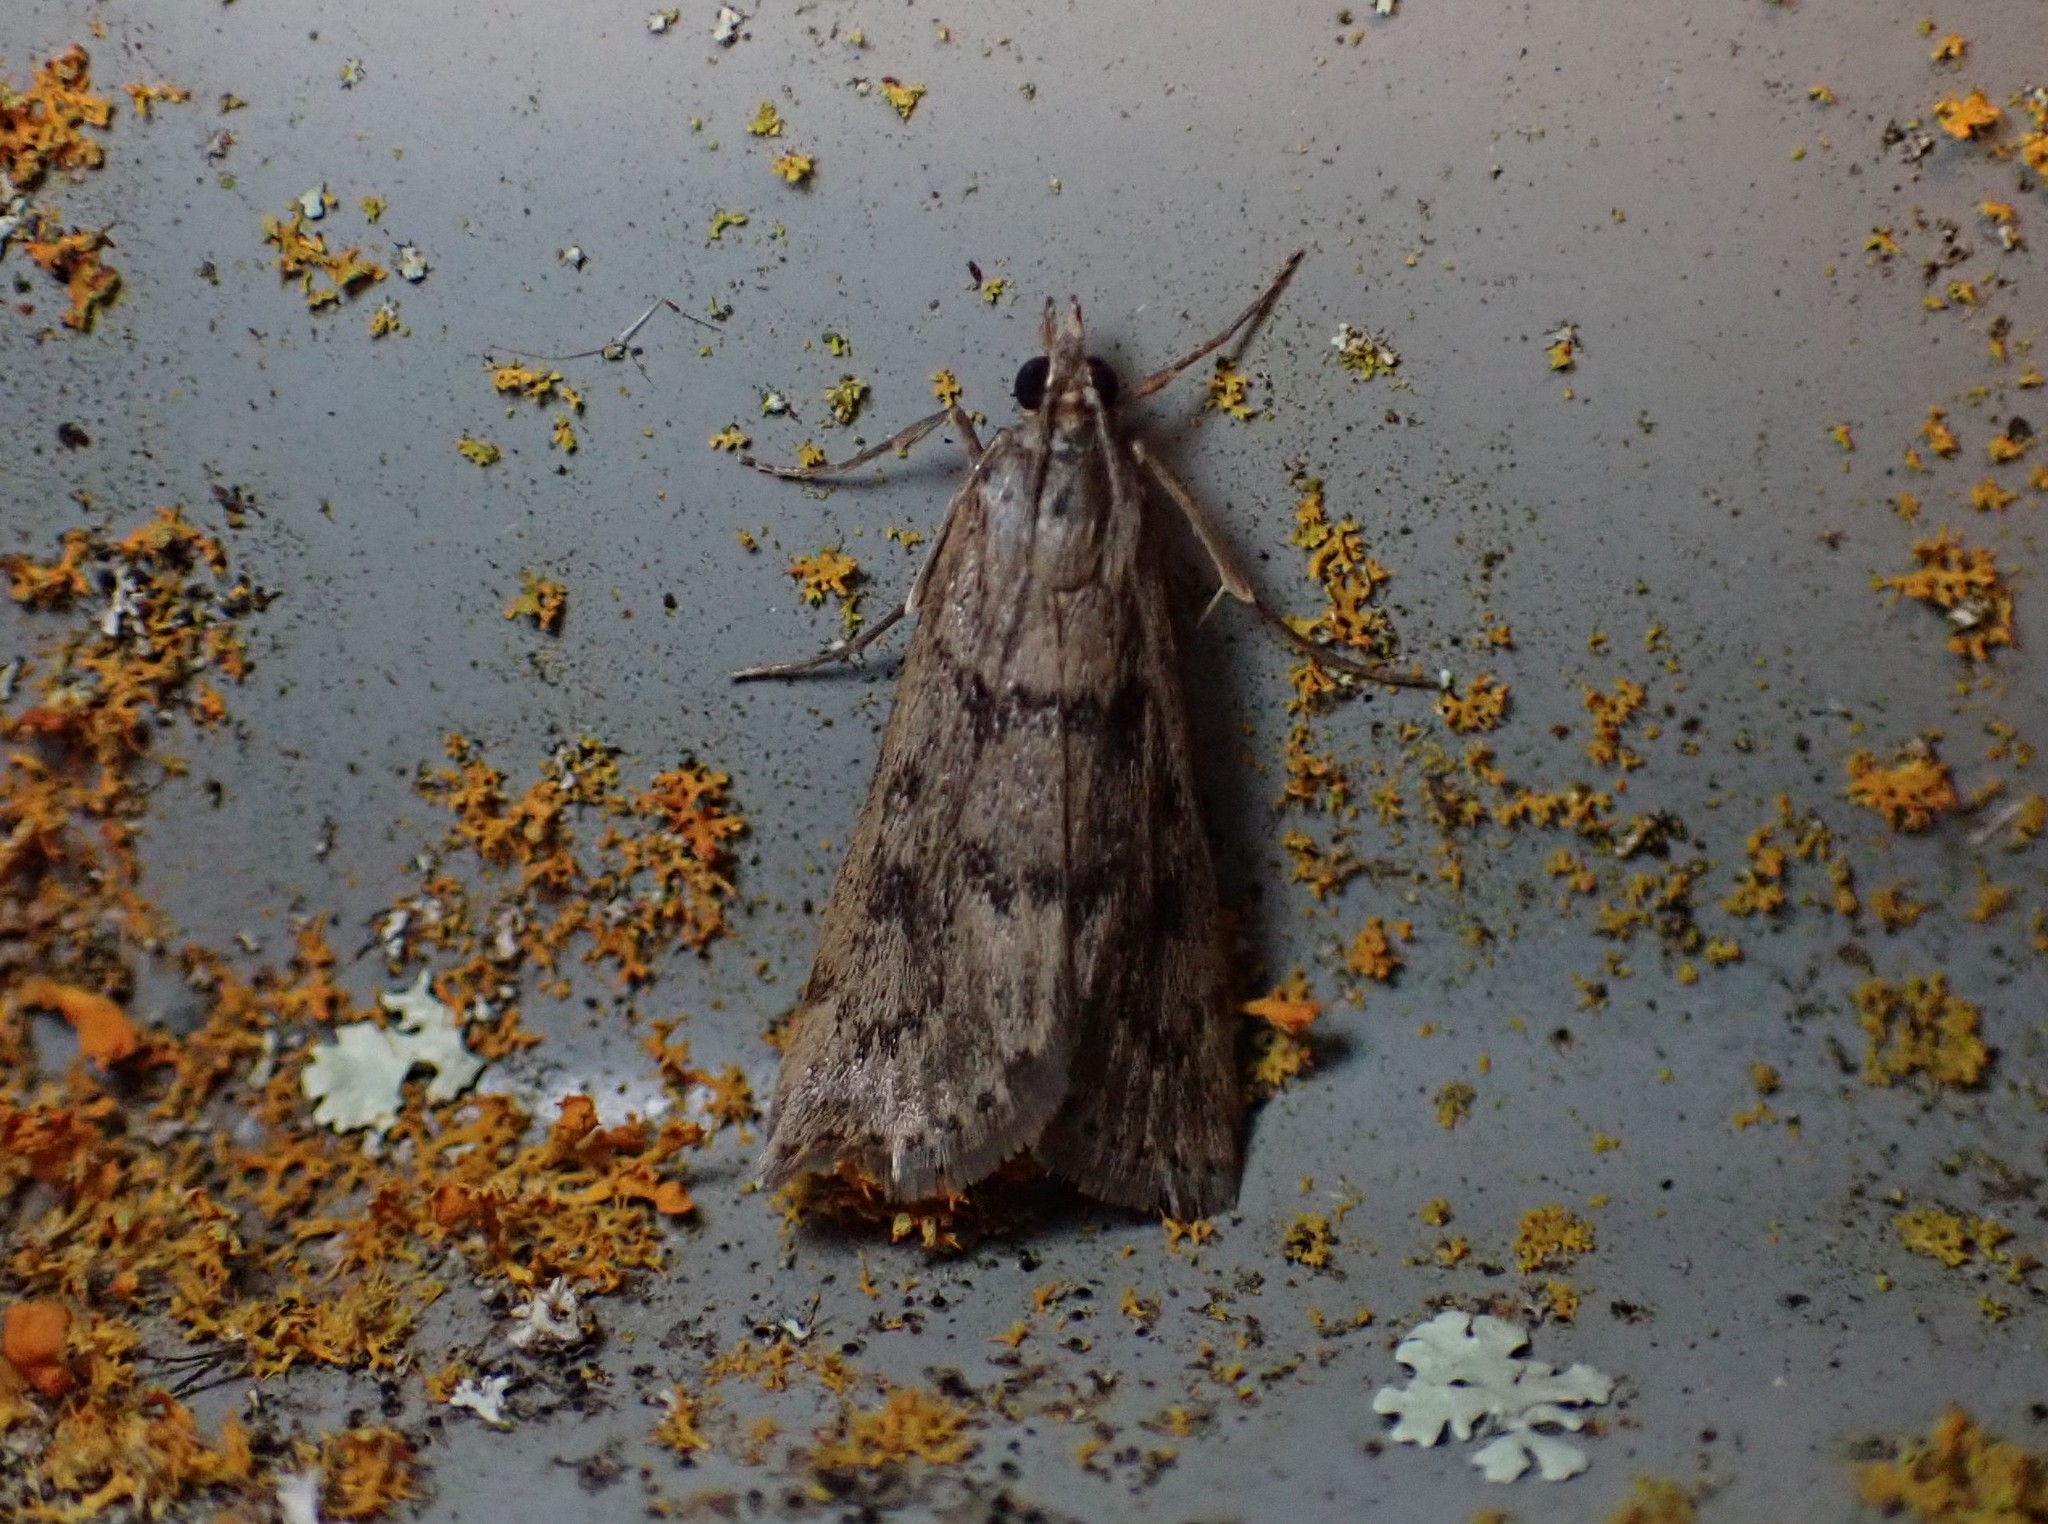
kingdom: Animalia
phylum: Arthropoda
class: Insecta
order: Lepidoptera
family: Crambidae
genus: Achyra
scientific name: Achyra affinitalis
